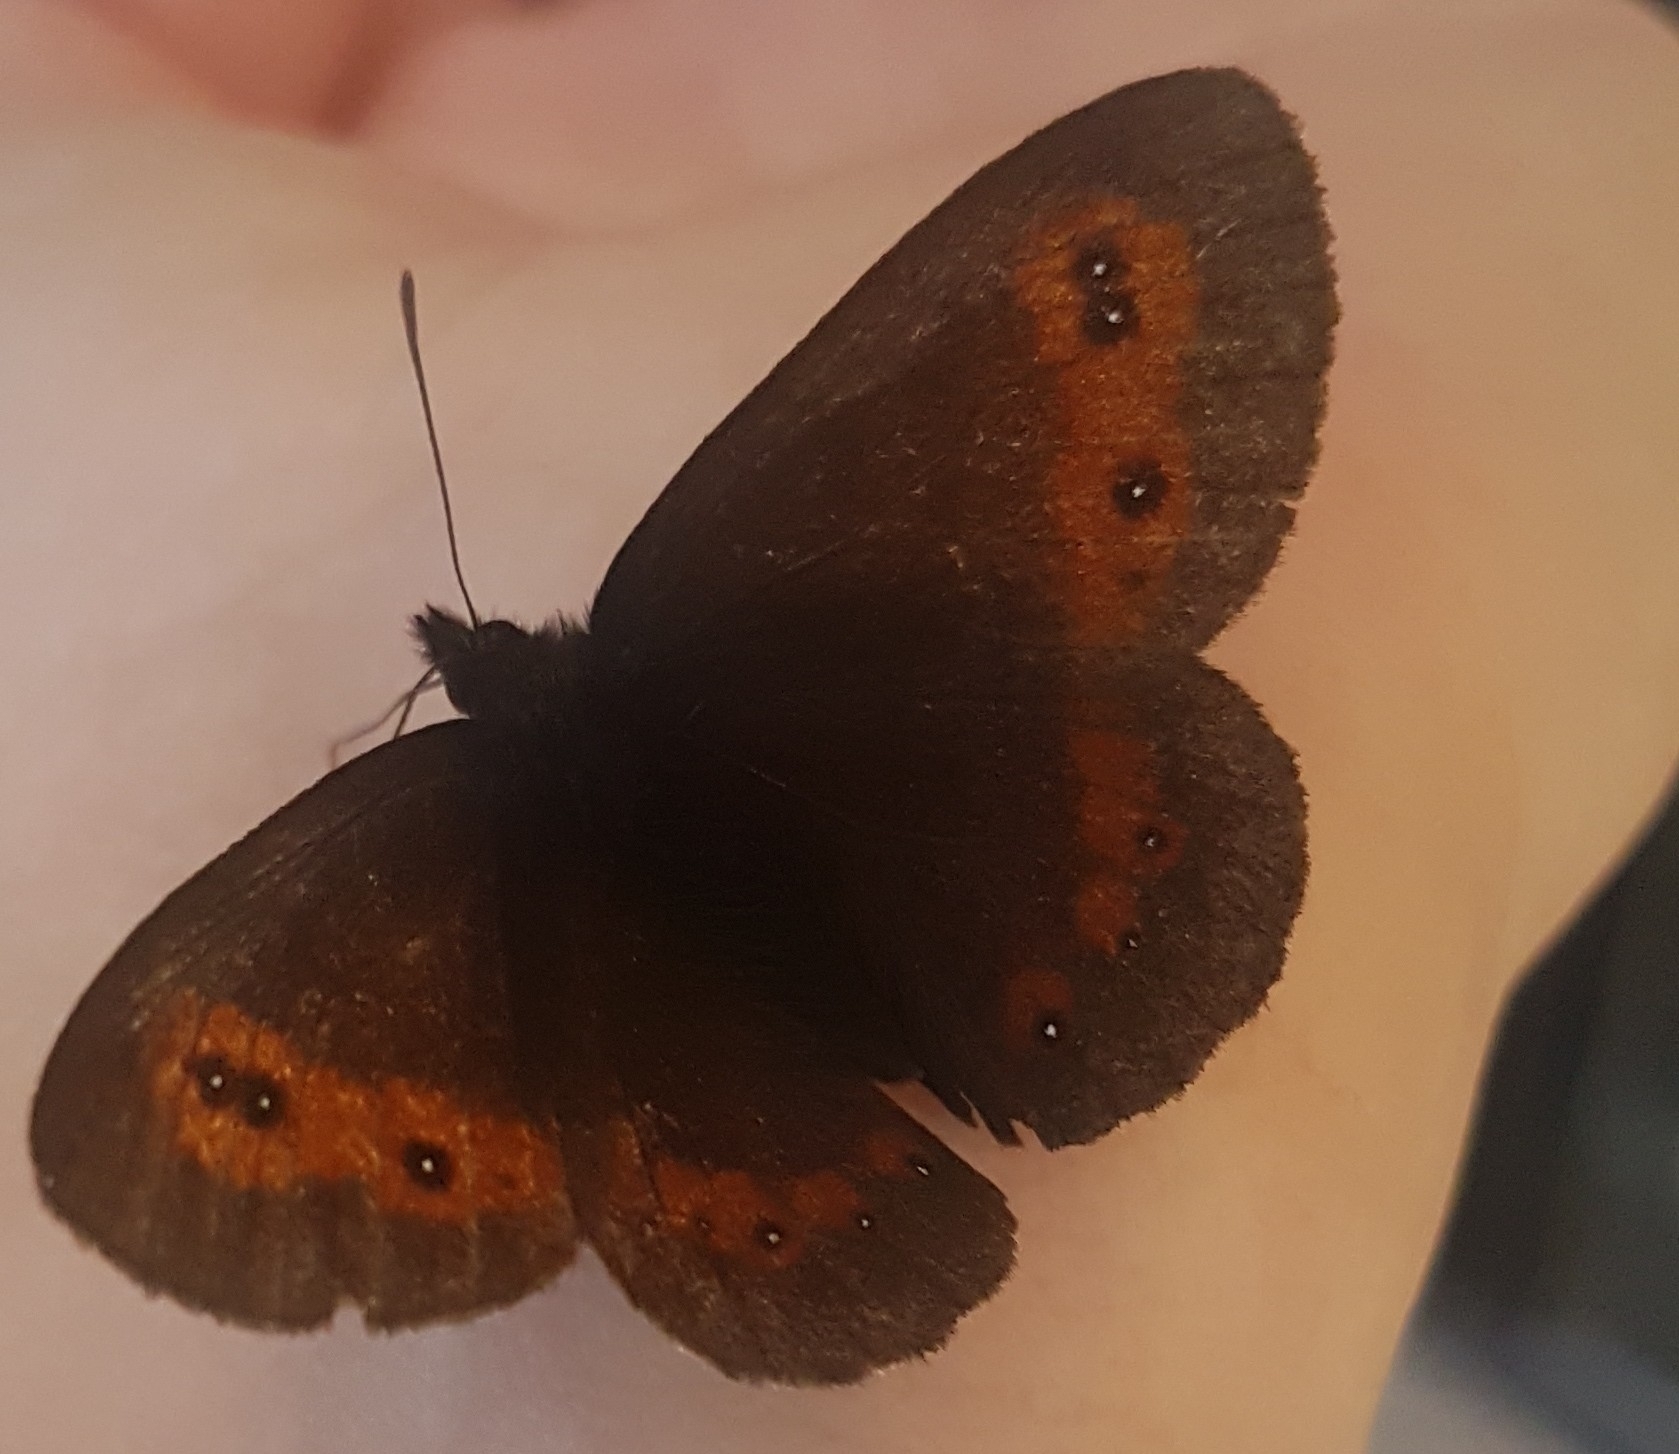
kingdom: Animalia
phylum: Arthropoda
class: Insecta
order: Lepidoptera
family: Nymphalidae
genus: Erebia
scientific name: Erebia euryale
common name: Large ringlet
